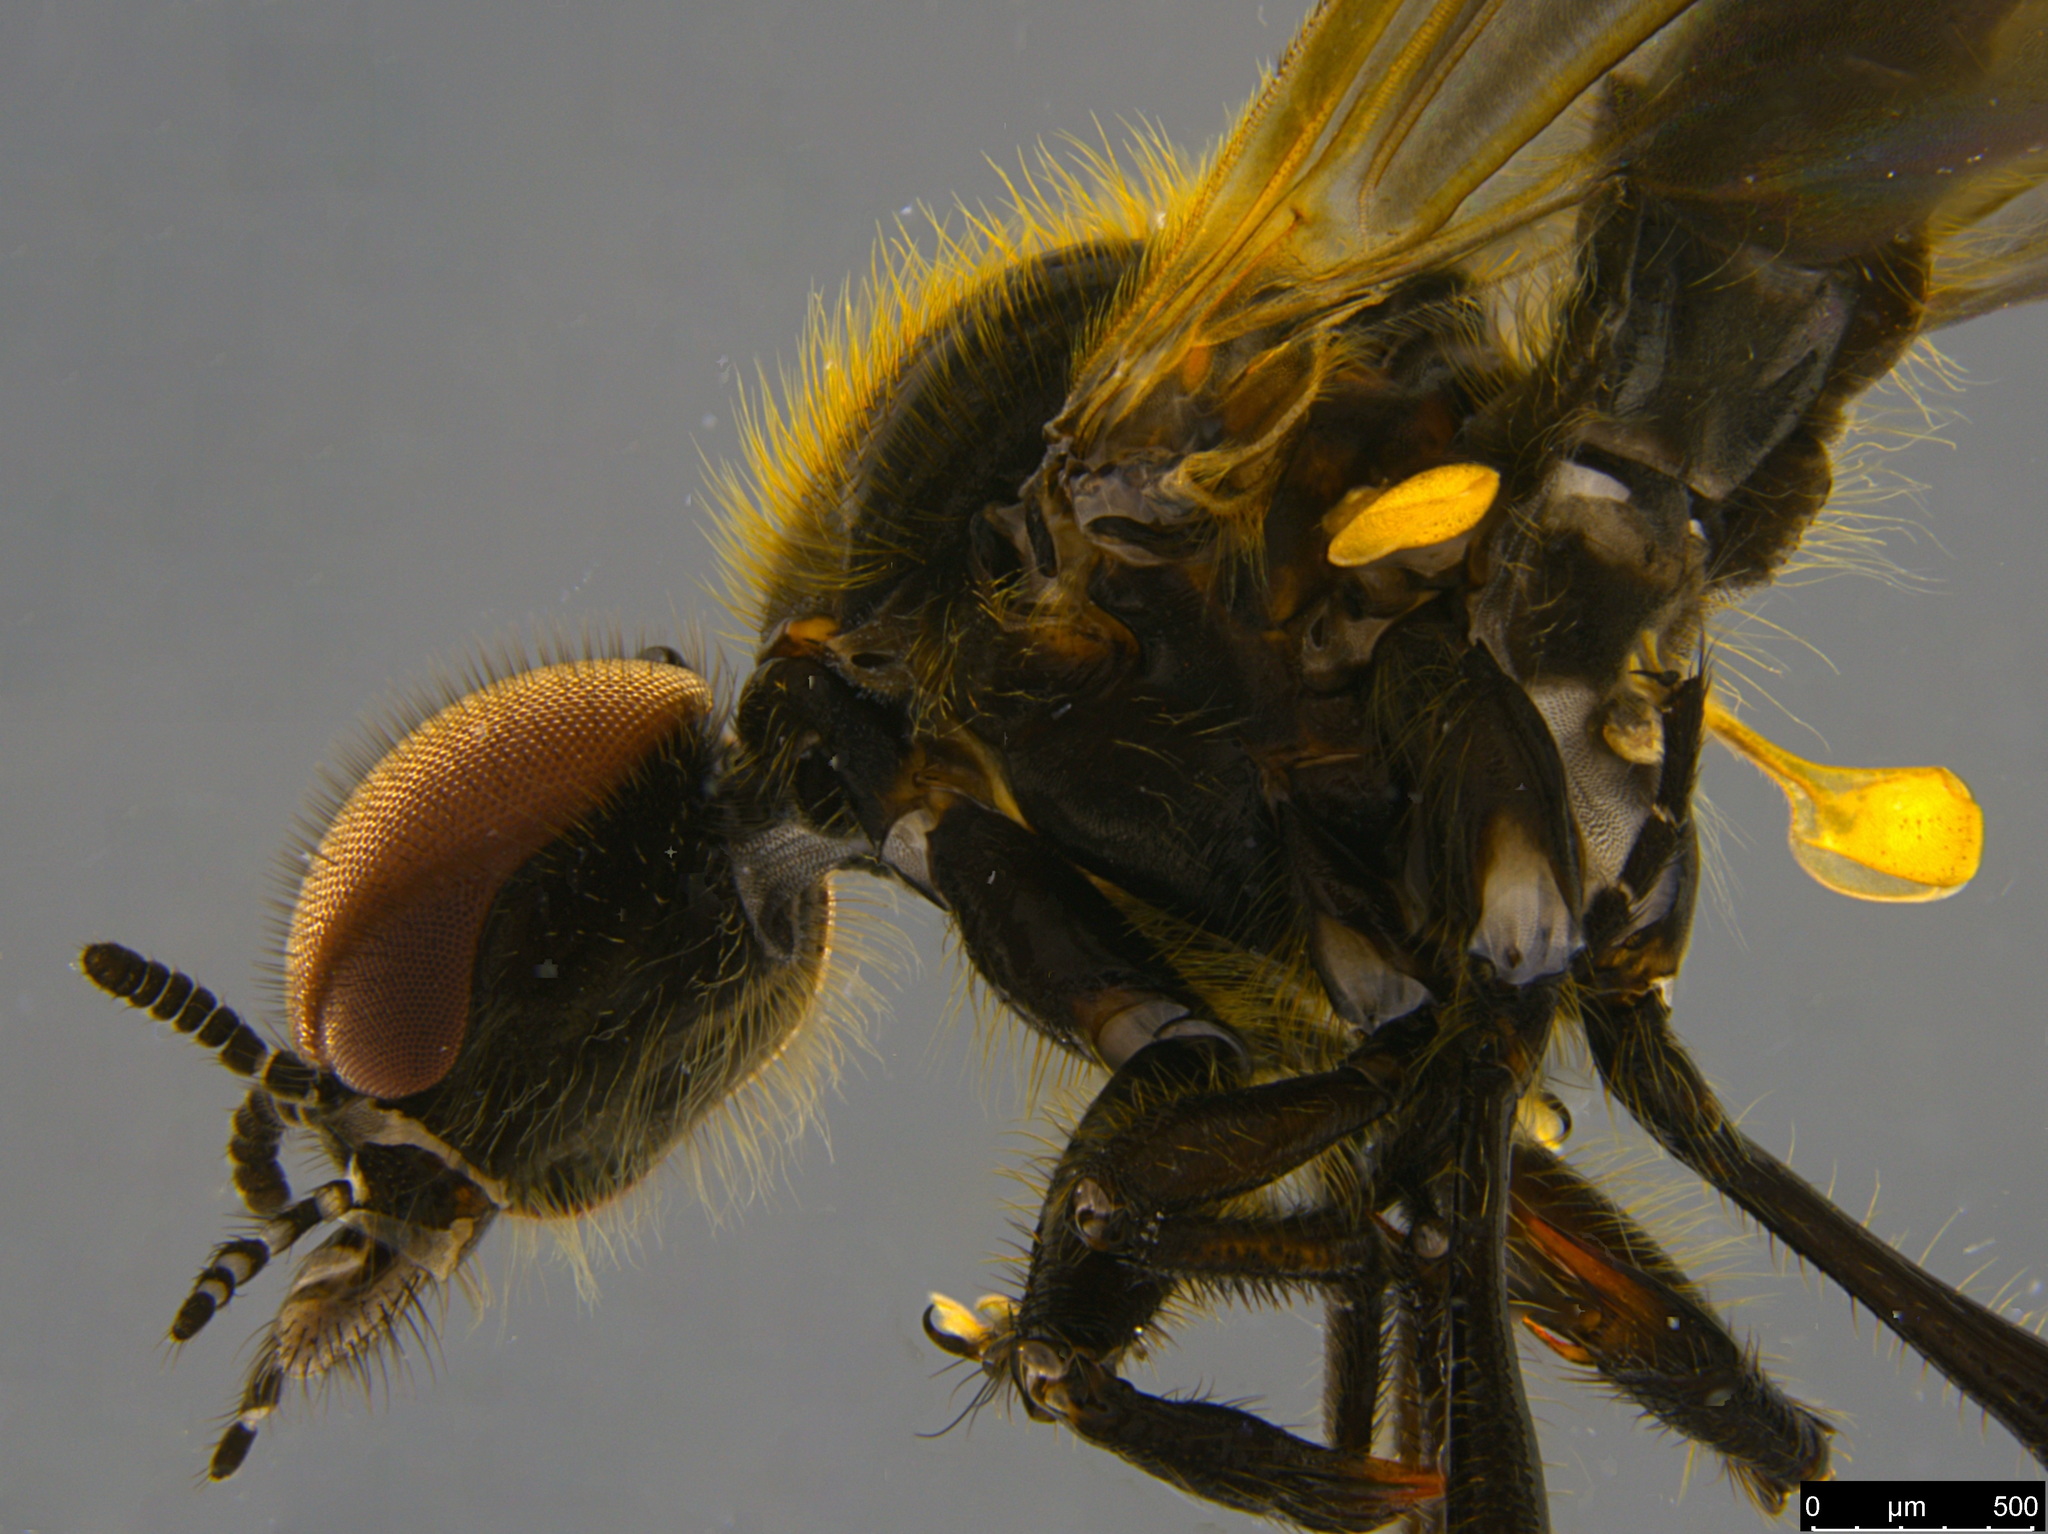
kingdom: Animalia
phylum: Arthropoda
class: Insecta
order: Diptera
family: Bibionidae
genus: Bibio
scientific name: Bibio imitator
